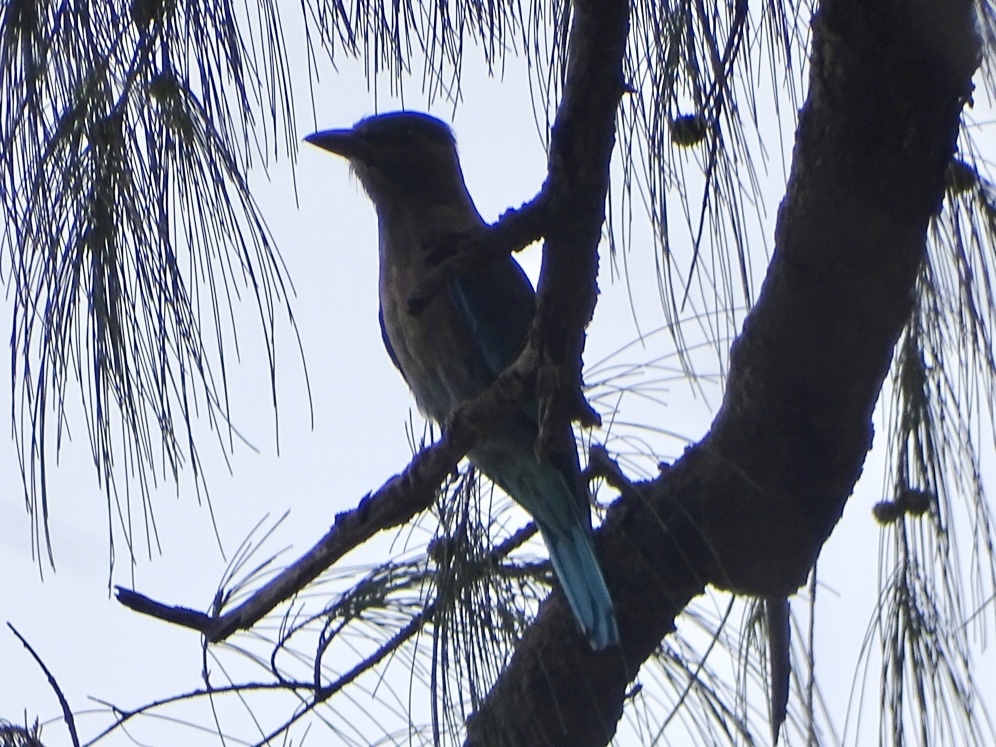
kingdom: Animalia
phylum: Chordata
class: Aves
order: Coraciiformes
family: Coraciidae
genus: Coracias
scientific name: Coracias affinis
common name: Indochinese roller
